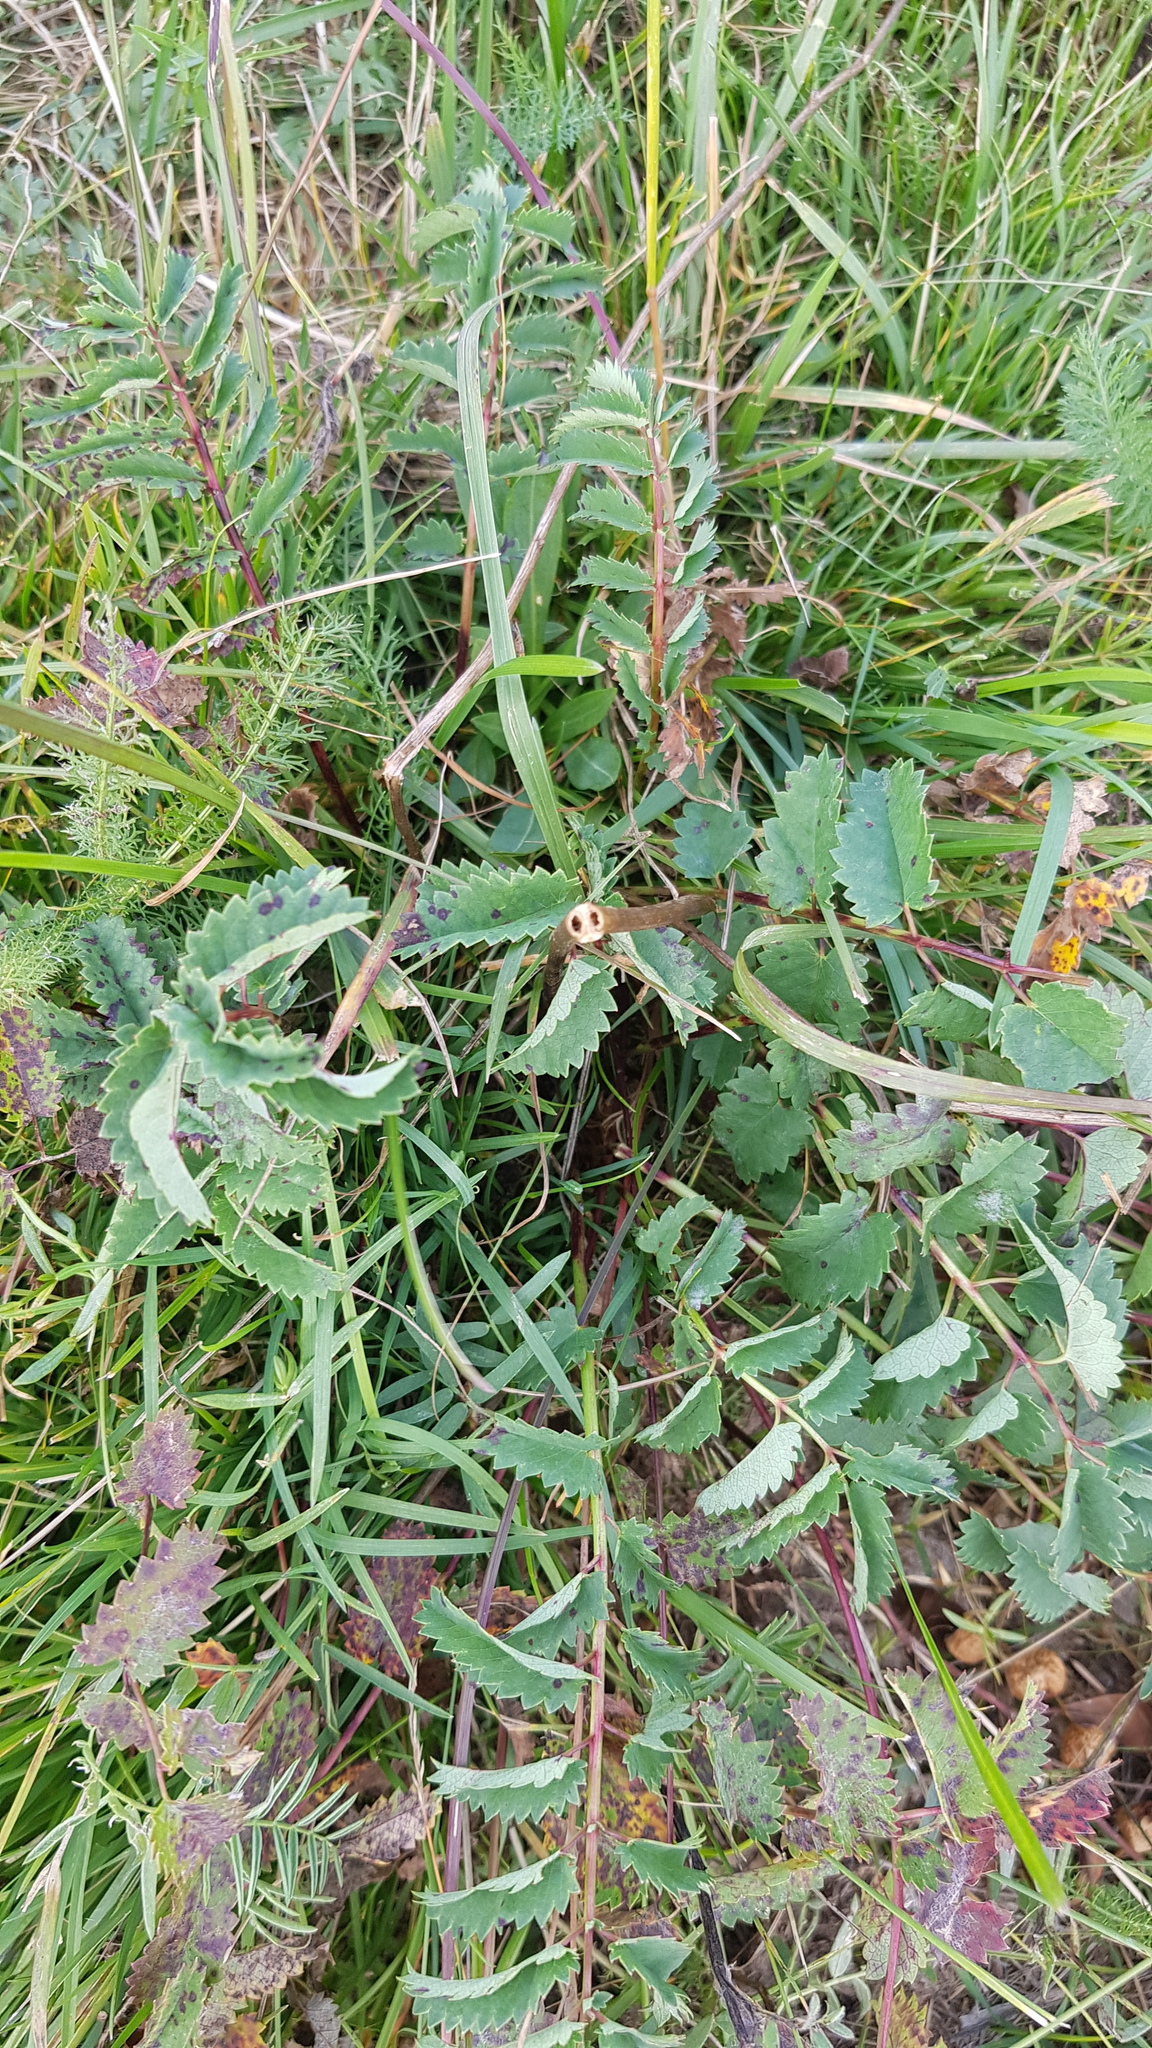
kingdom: Plantae
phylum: Tracheophyta
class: Magnoliopsida
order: Rosales
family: Rosaceae
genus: Sanguisorba
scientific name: Sanguisorba officinalis
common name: Great burnet
